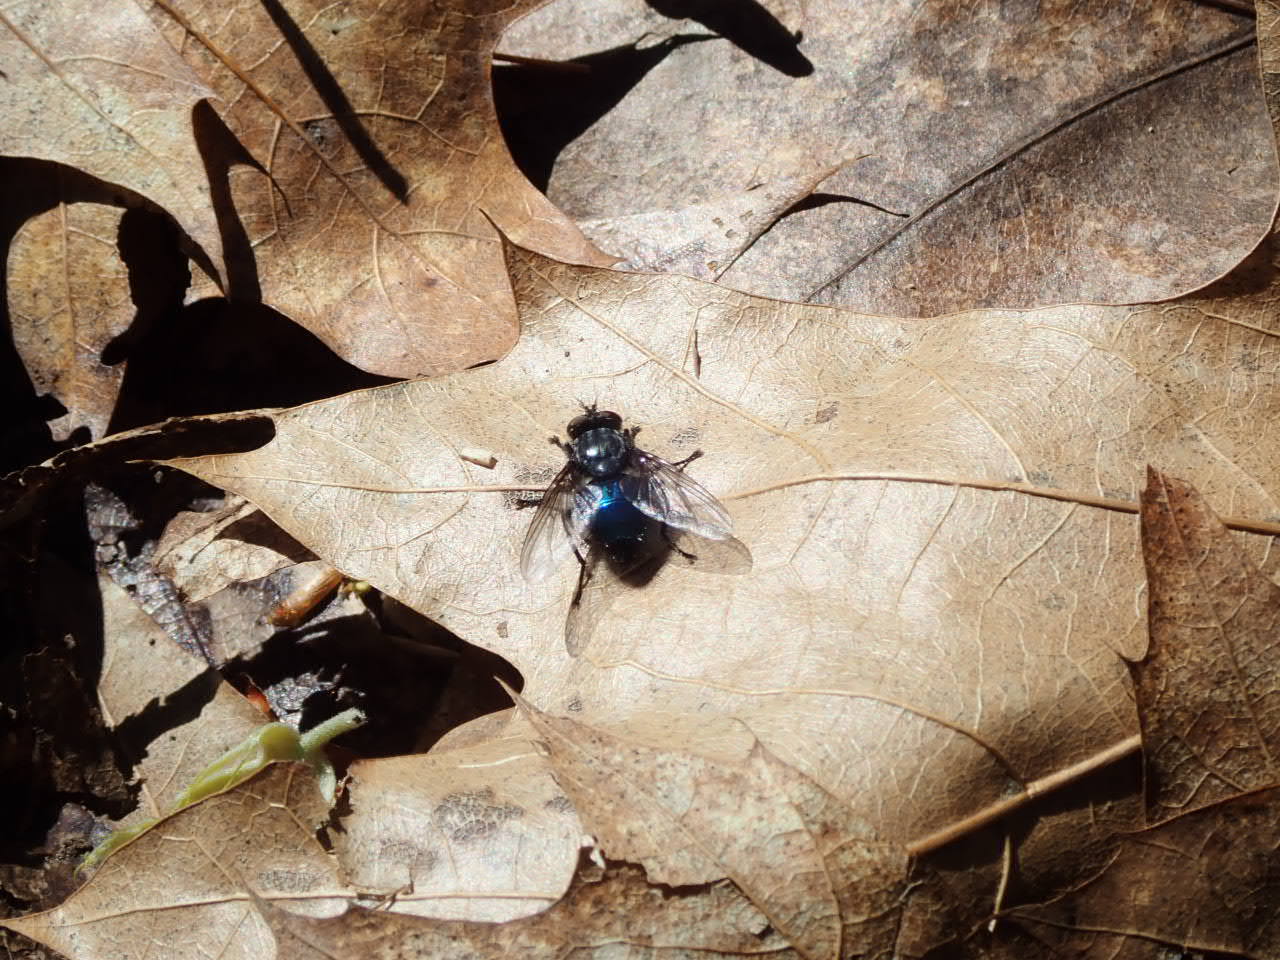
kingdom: Animalia
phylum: Arthropoda
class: Insecta
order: Diptera
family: Calliphoridae
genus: Cynomya
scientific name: Cynomya cadaverina
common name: Shiny blue bottle fly
